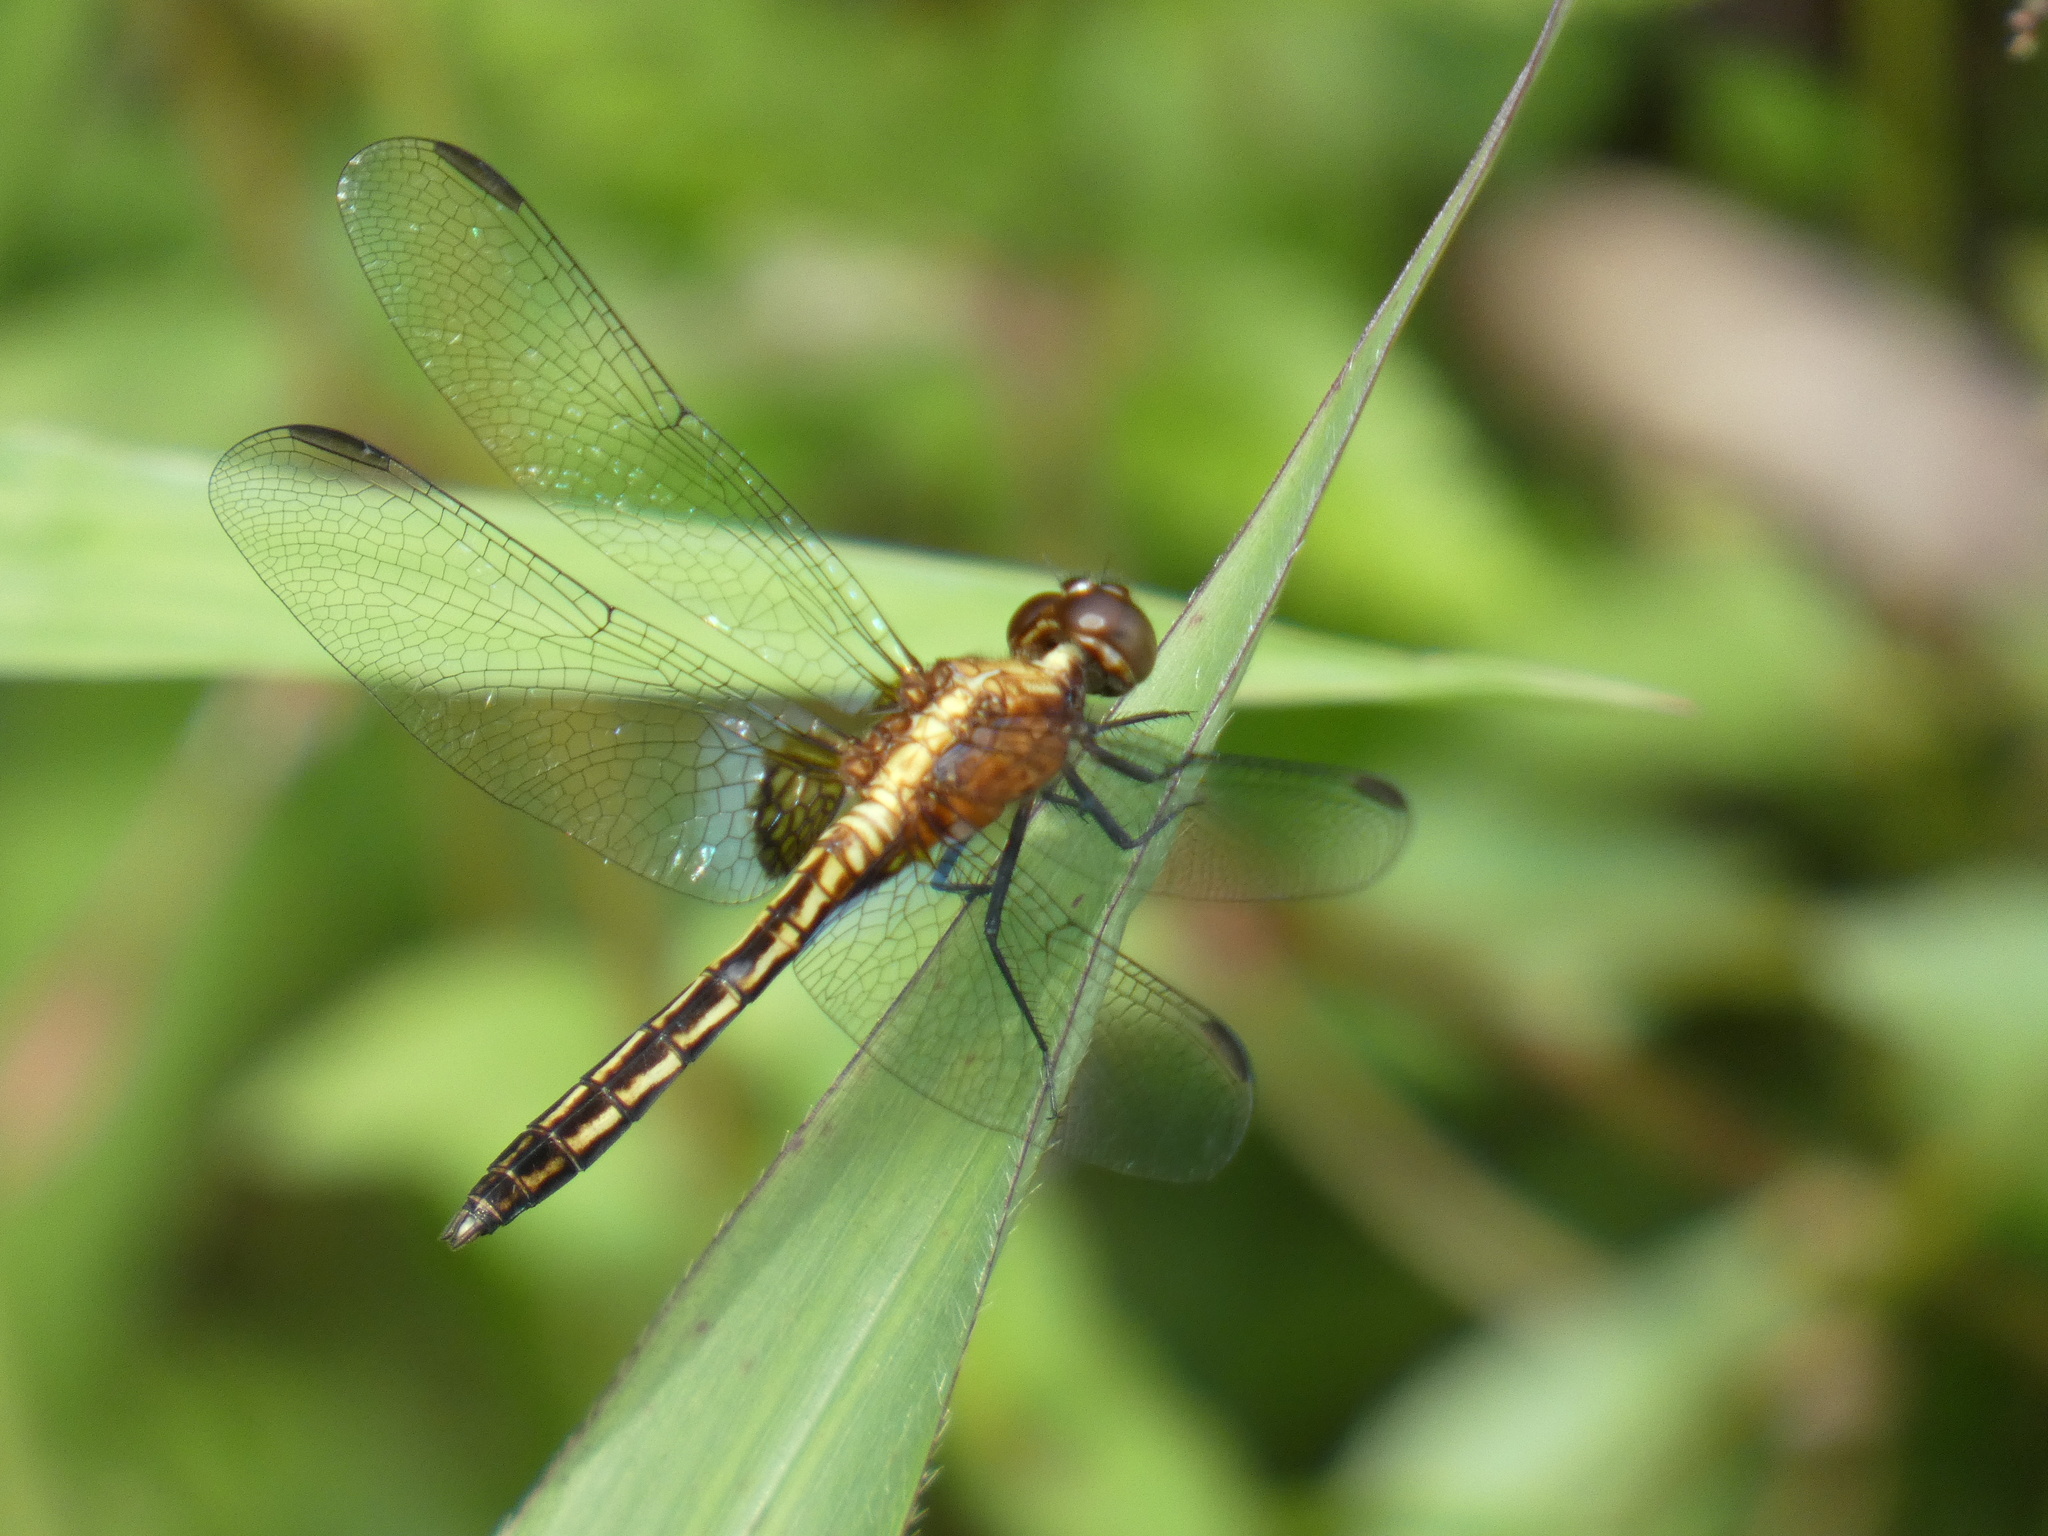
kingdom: Animalia
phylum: Arthropoda
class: Insecta
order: Odonata
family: Libellulidae
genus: Erythrodiplax
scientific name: Erythrodiplax avittata
